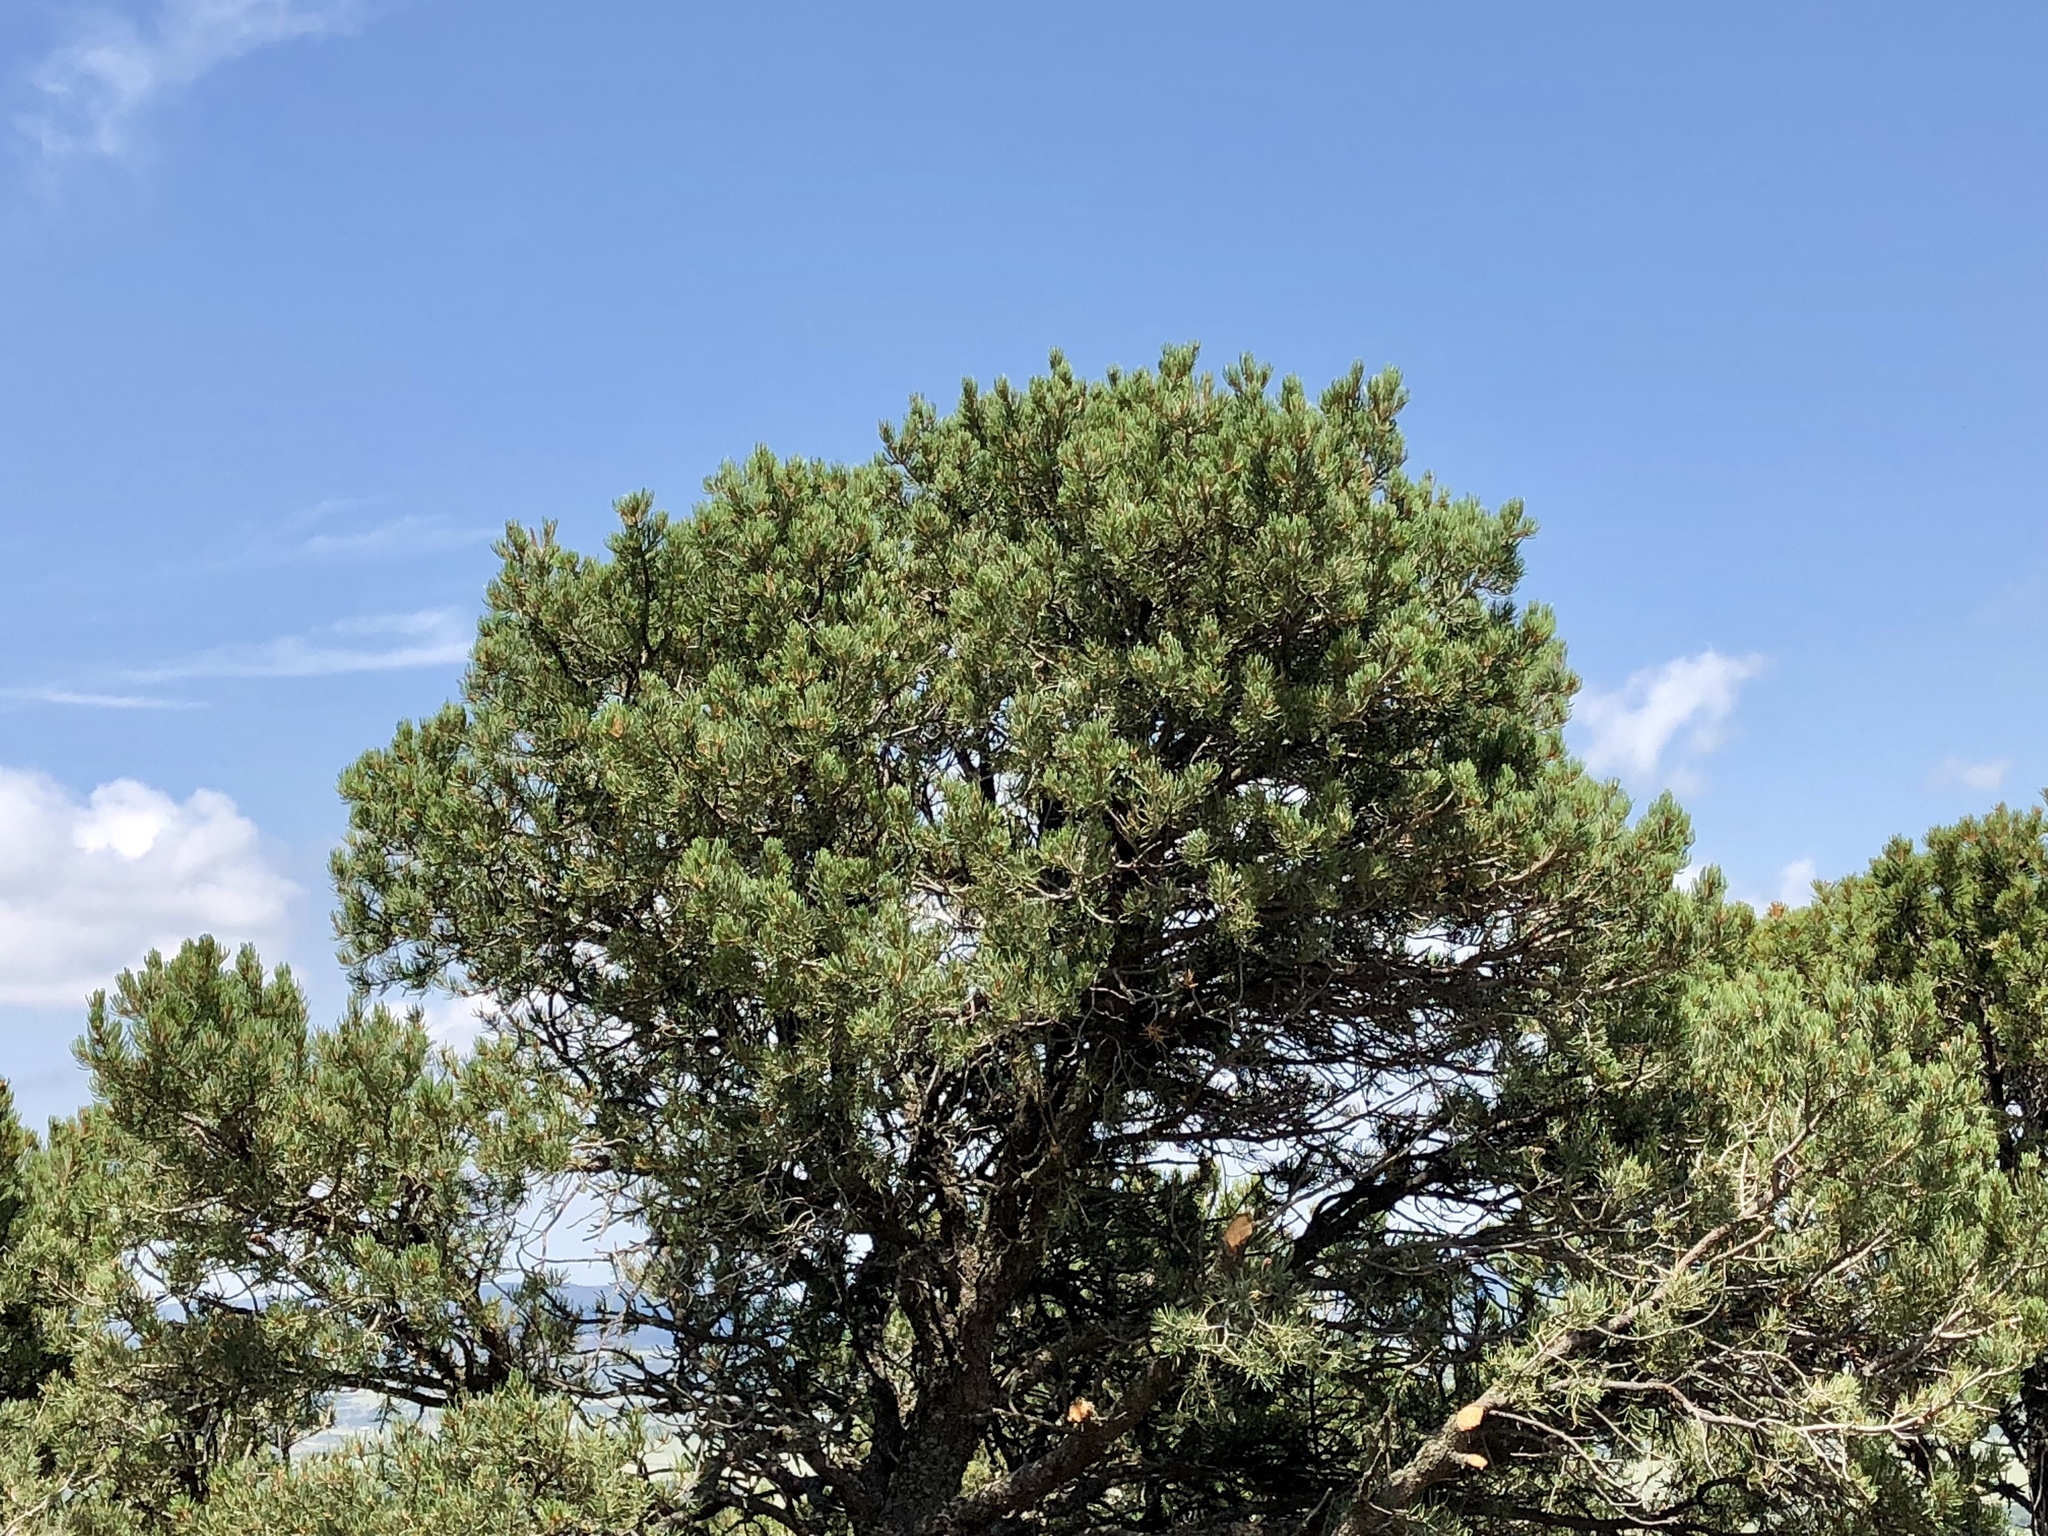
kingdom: Plantae
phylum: Tracheophyta
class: Pinopsida
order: Pinales
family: Pinaceae
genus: Pinus
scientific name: Pinus edulis
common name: Colorado pinyon
